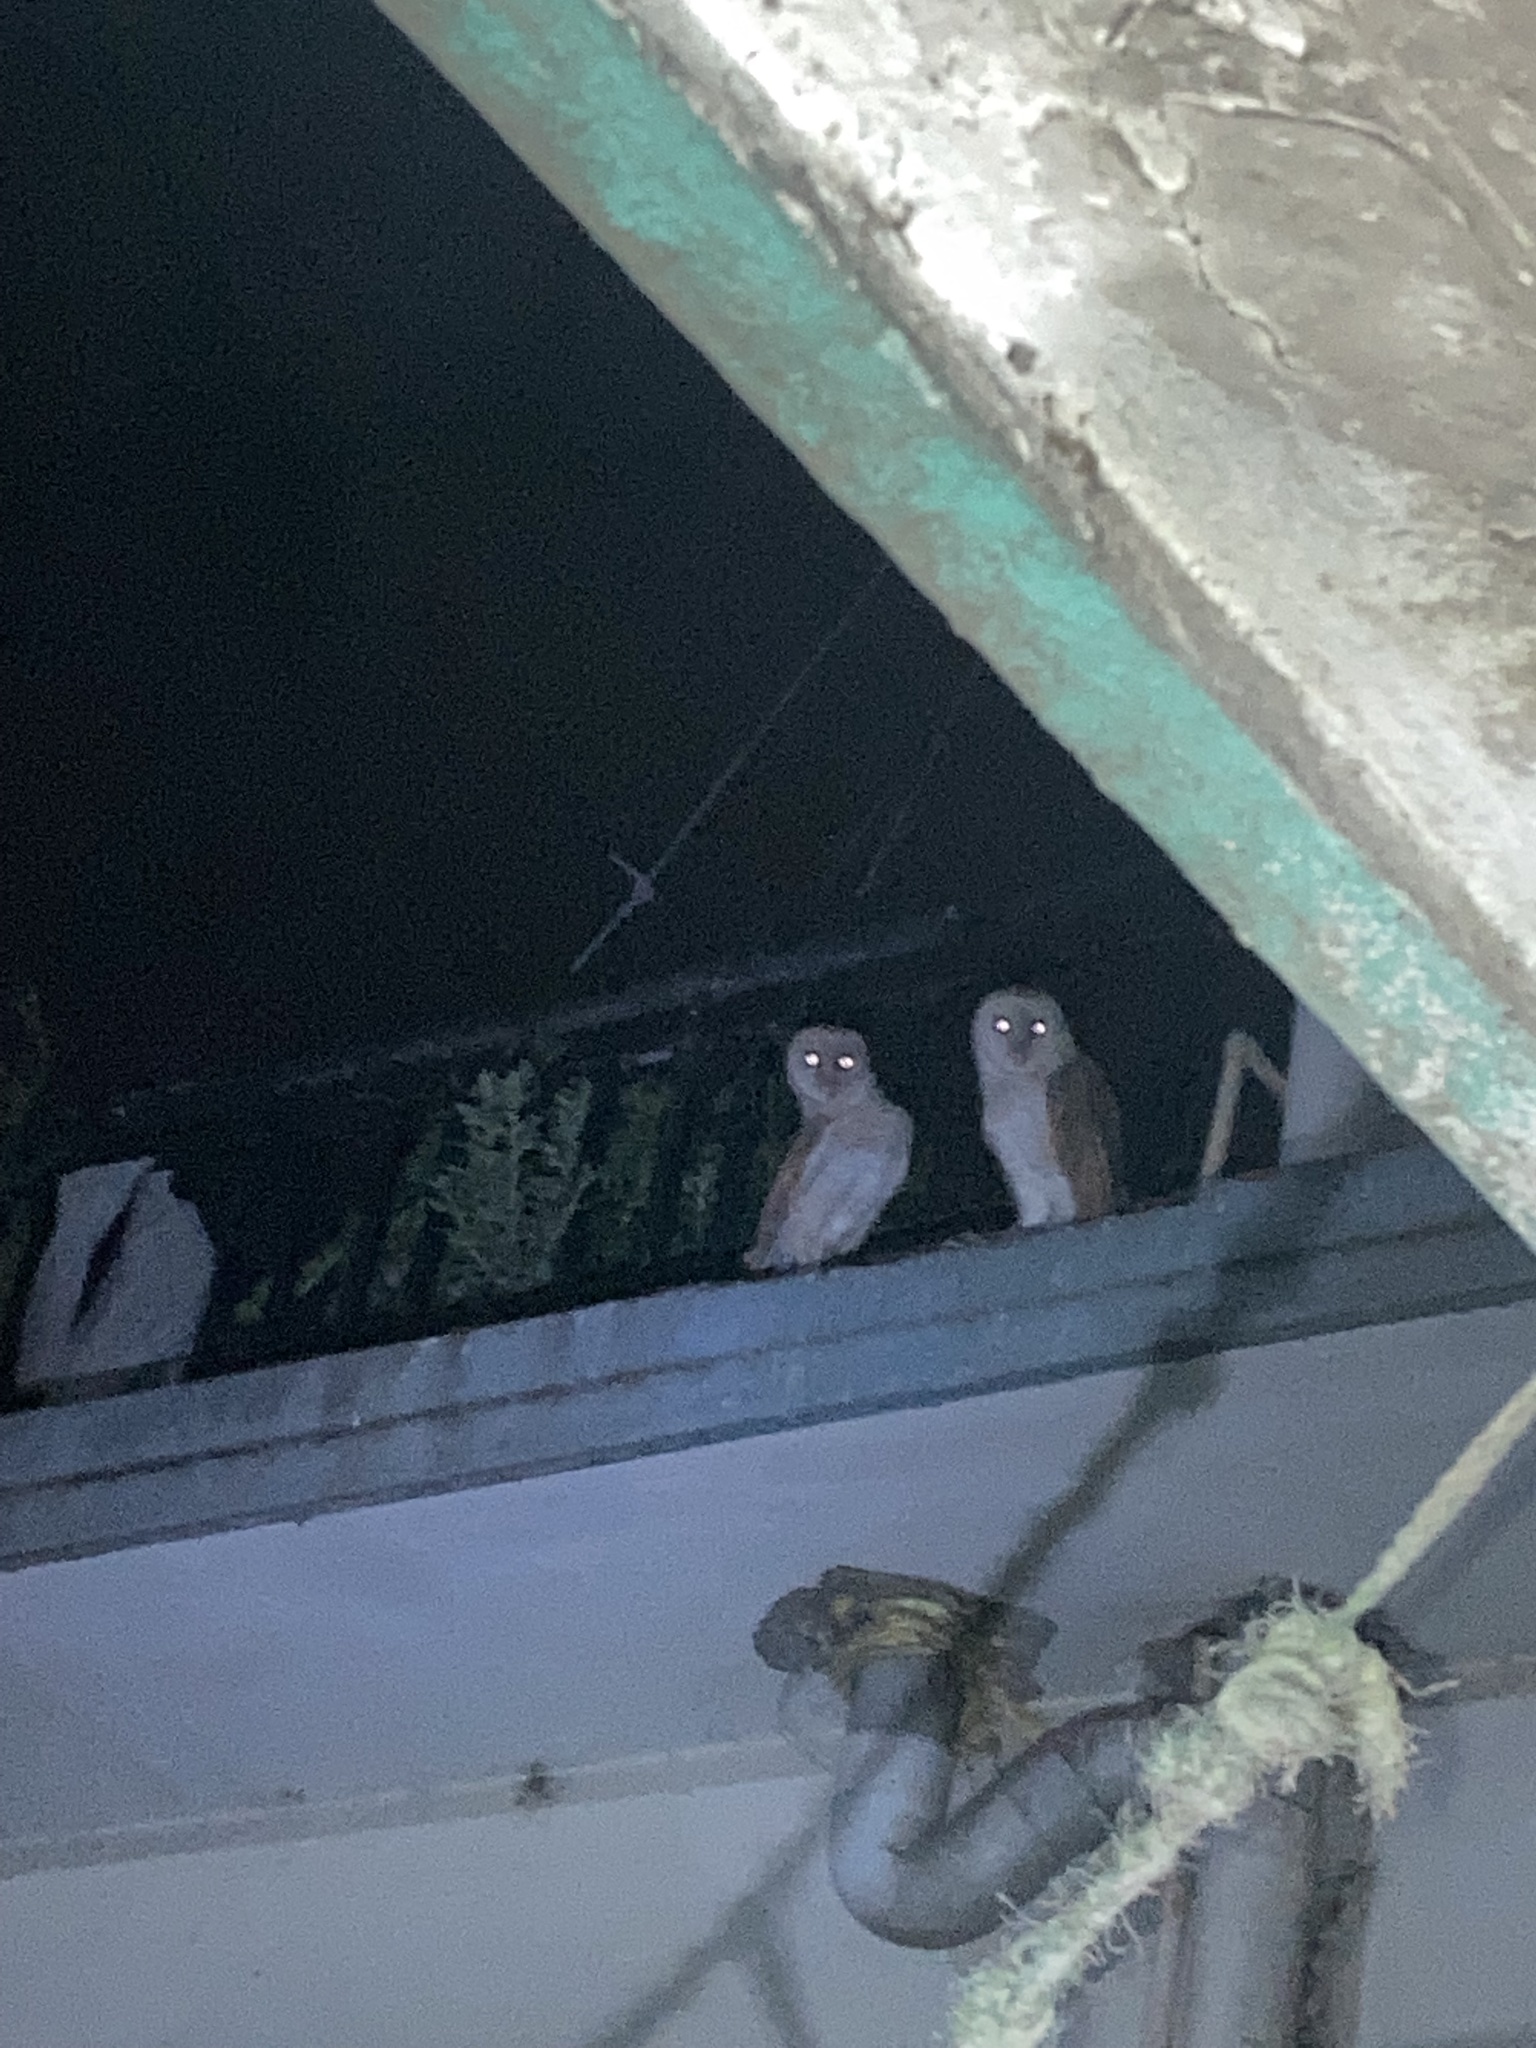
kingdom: Animalia
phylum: Chordata
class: Aves
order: Strigiformes
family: Tytonidae
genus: Tyto
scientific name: Tyto alba
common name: Barn owl
